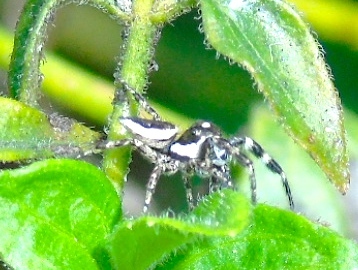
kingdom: Animalia
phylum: Arthropoda
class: Arachnida
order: Araneae
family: Salticidae
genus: Dendryphantes
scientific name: Dendryphantes zygoballoides
